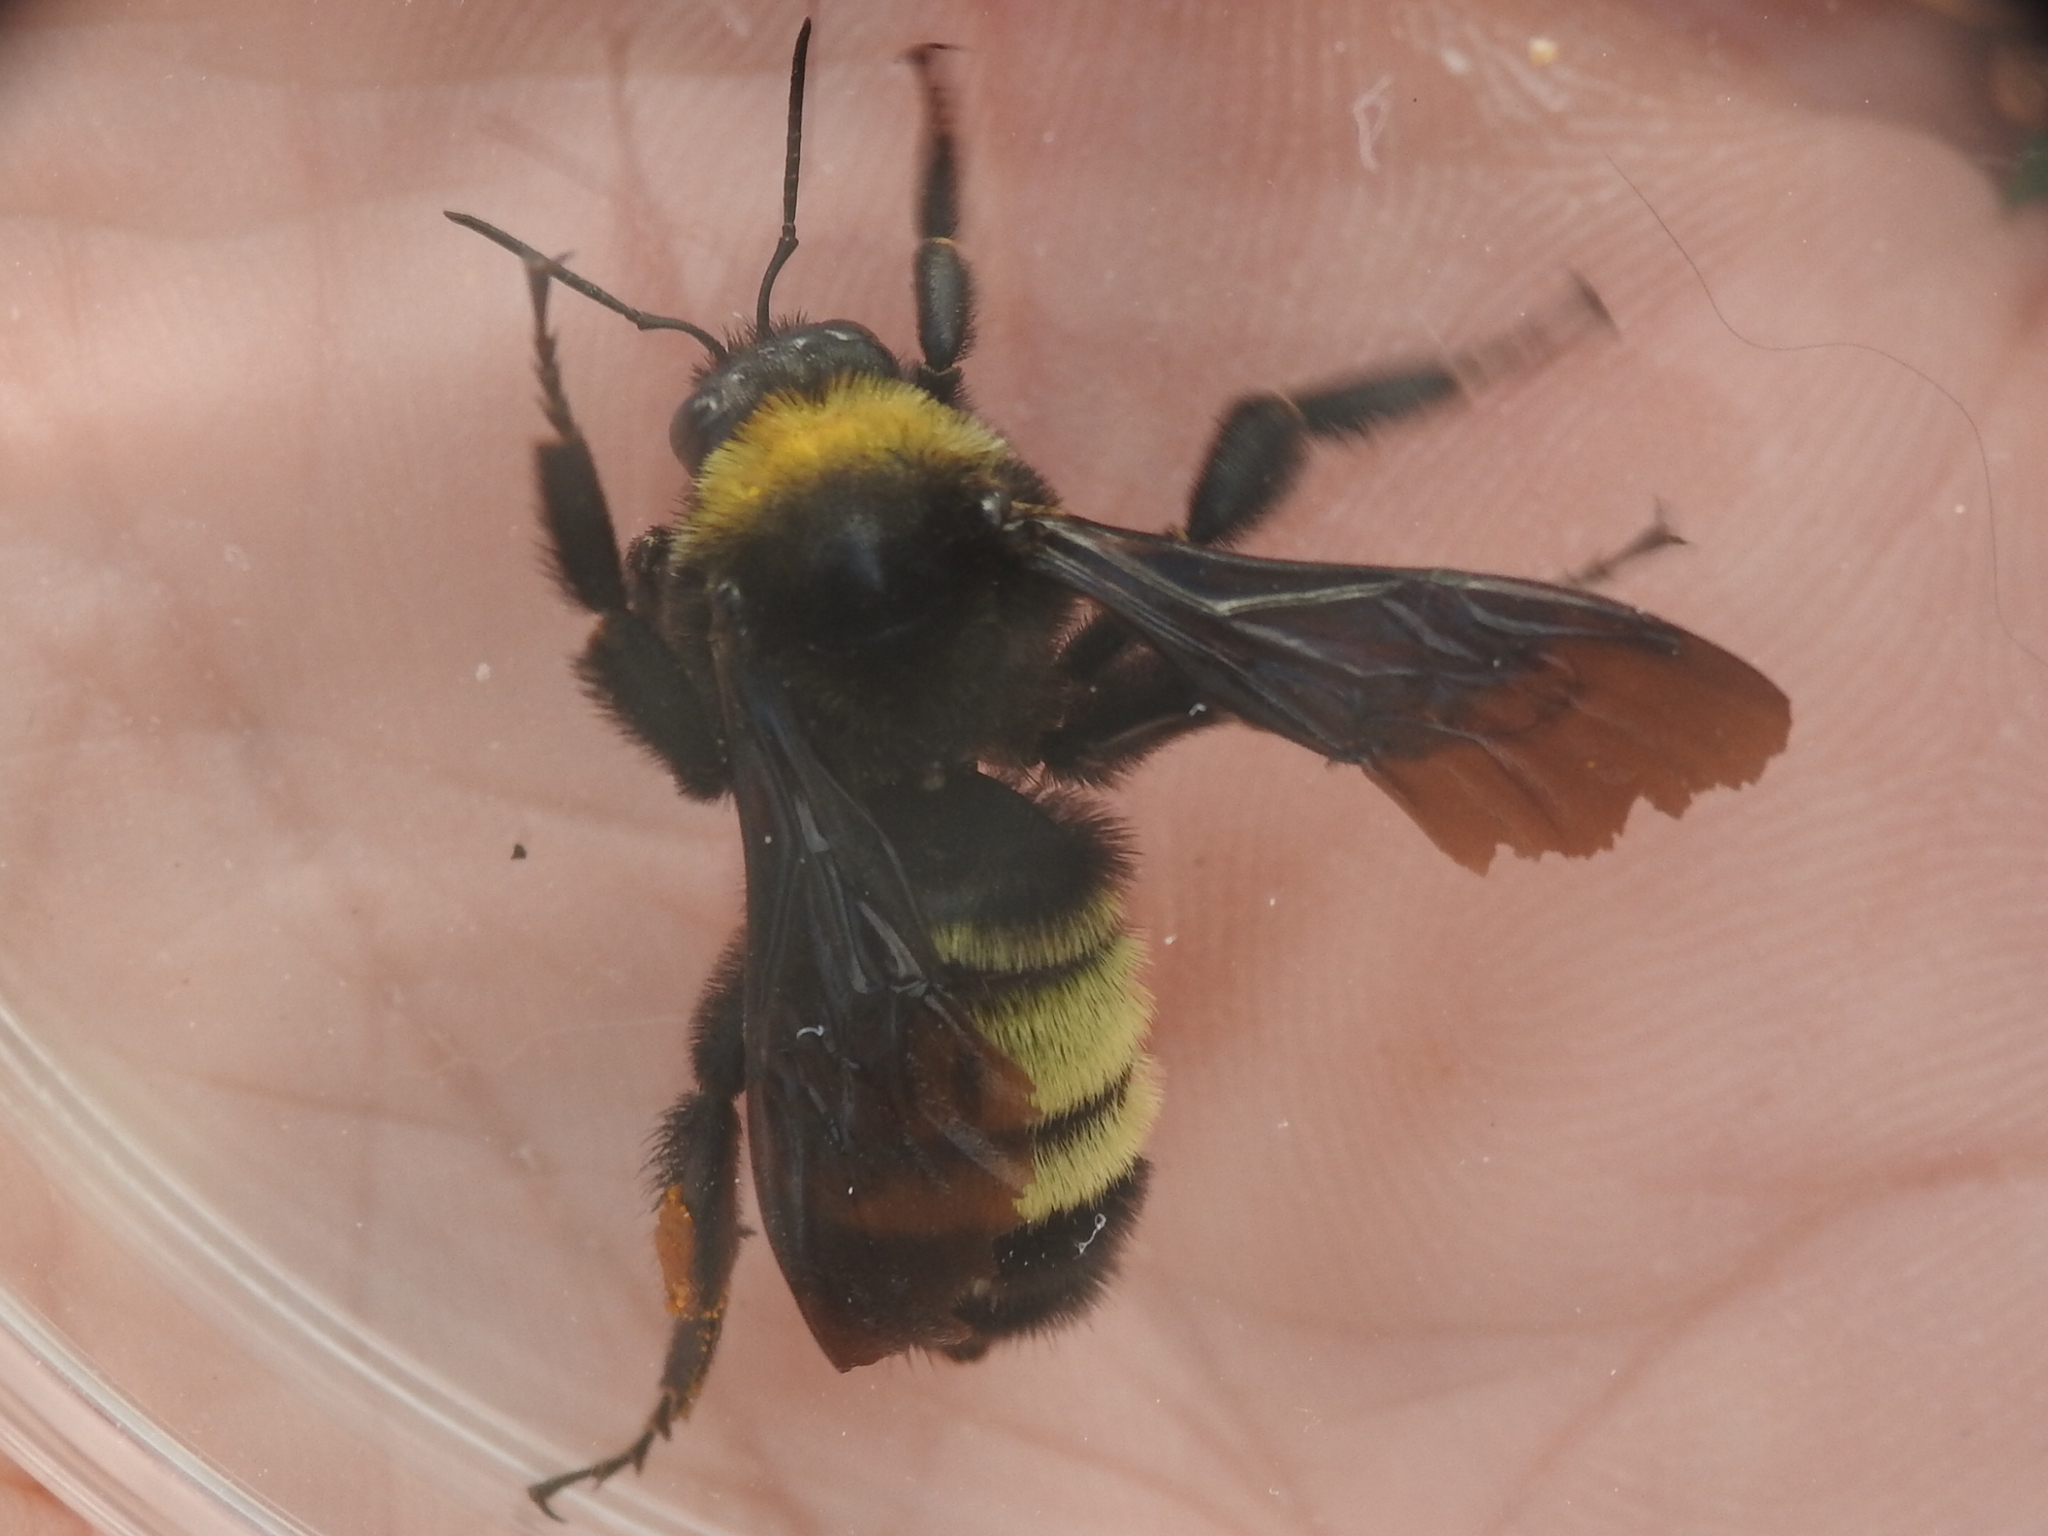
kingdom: Animalia
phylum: Arthropoda
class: Insecta
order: Hymenoptera
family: Apidae
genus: Bombus
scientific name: Bombus pensylvanicus
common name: Bumble bee
